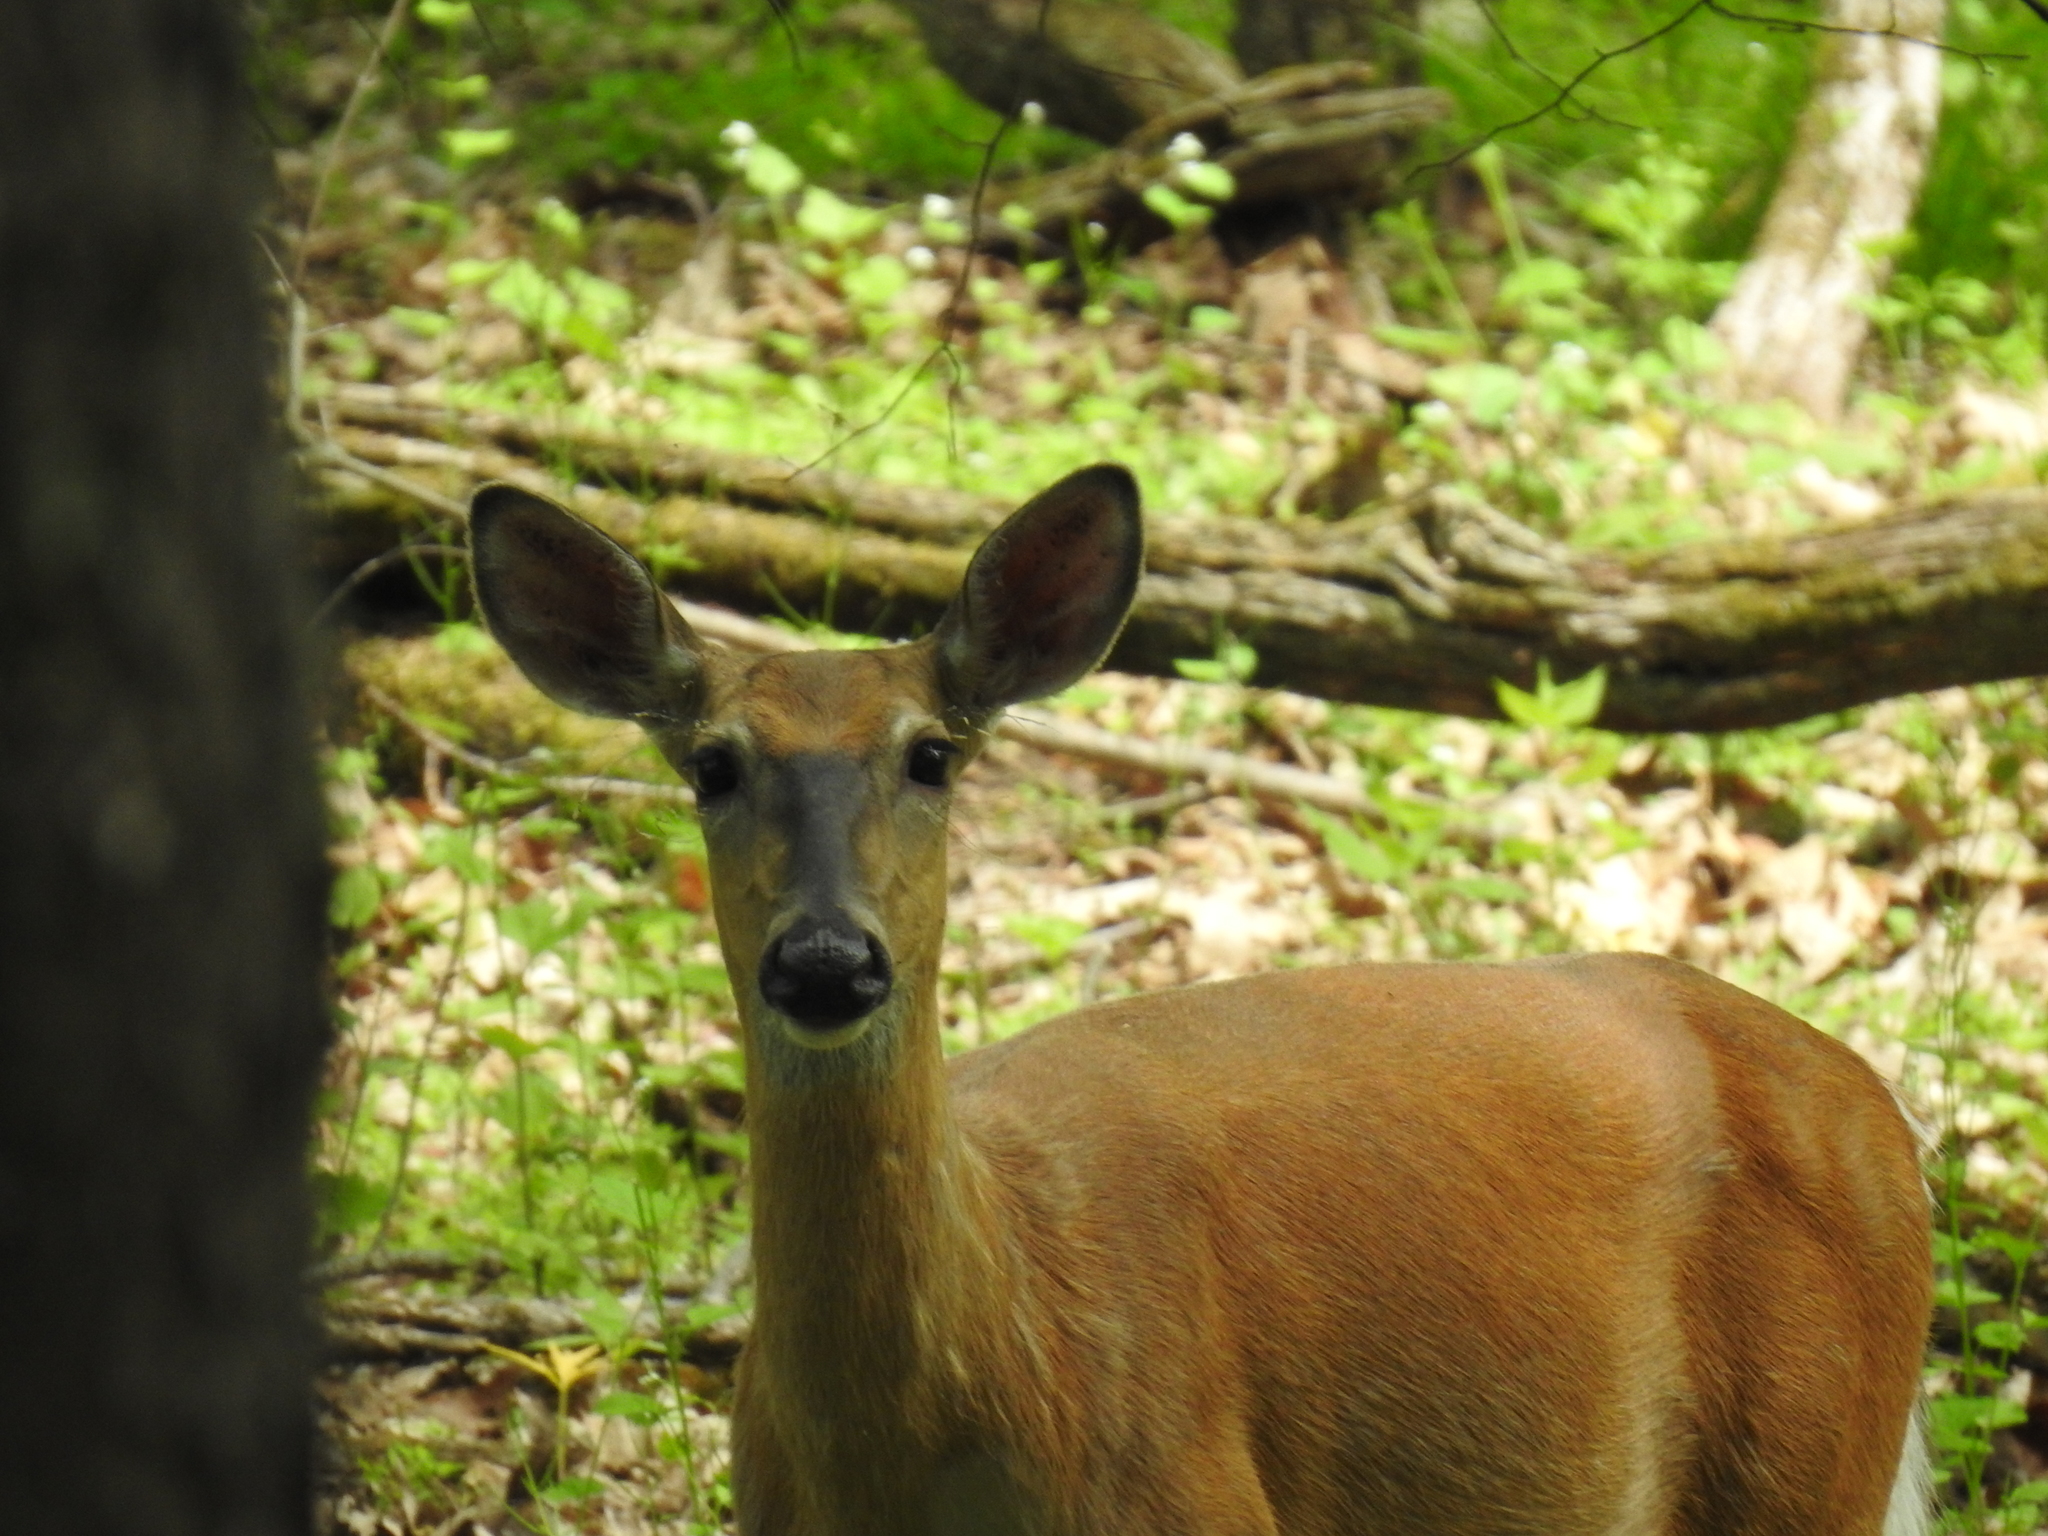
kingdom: Animalia
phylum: Chordata
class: Mammalia
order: Artiodactyla
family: Cervidae
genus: Odocoileus
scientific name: Odocoileus virginianus
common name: White-tailed deer
